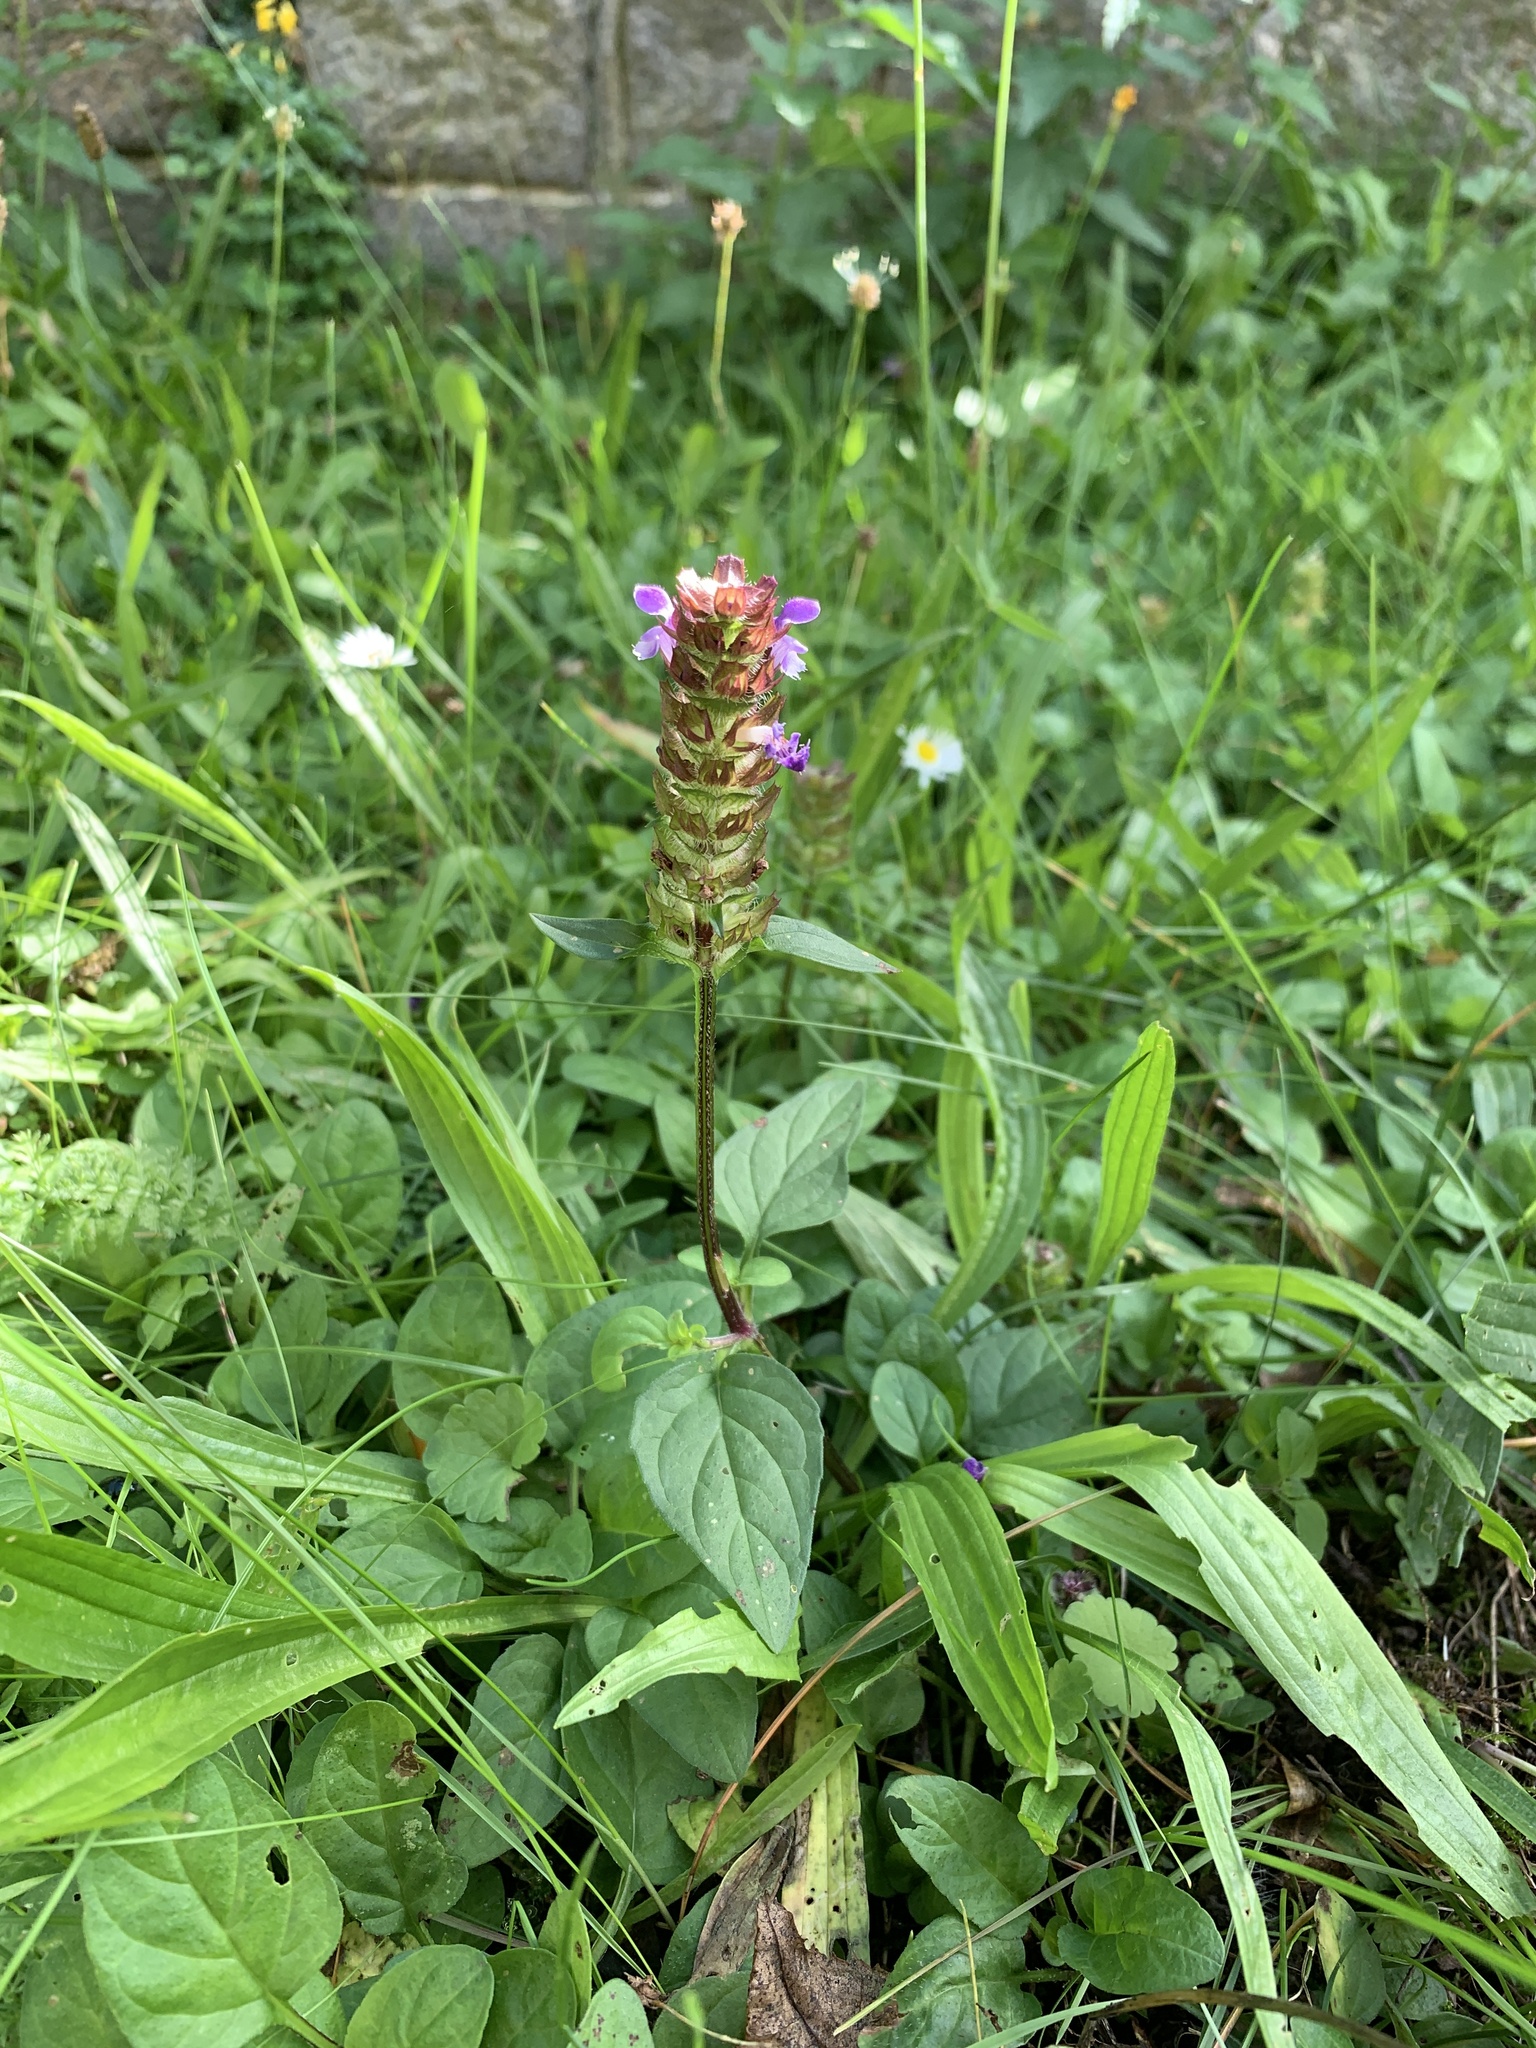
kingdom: Plantae
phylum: Tracheophyta
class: Magnoliopsida
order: Lamiales
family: Lamiaceae
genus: Prunella
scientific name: Prunella vulgaris
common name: Heal-all
